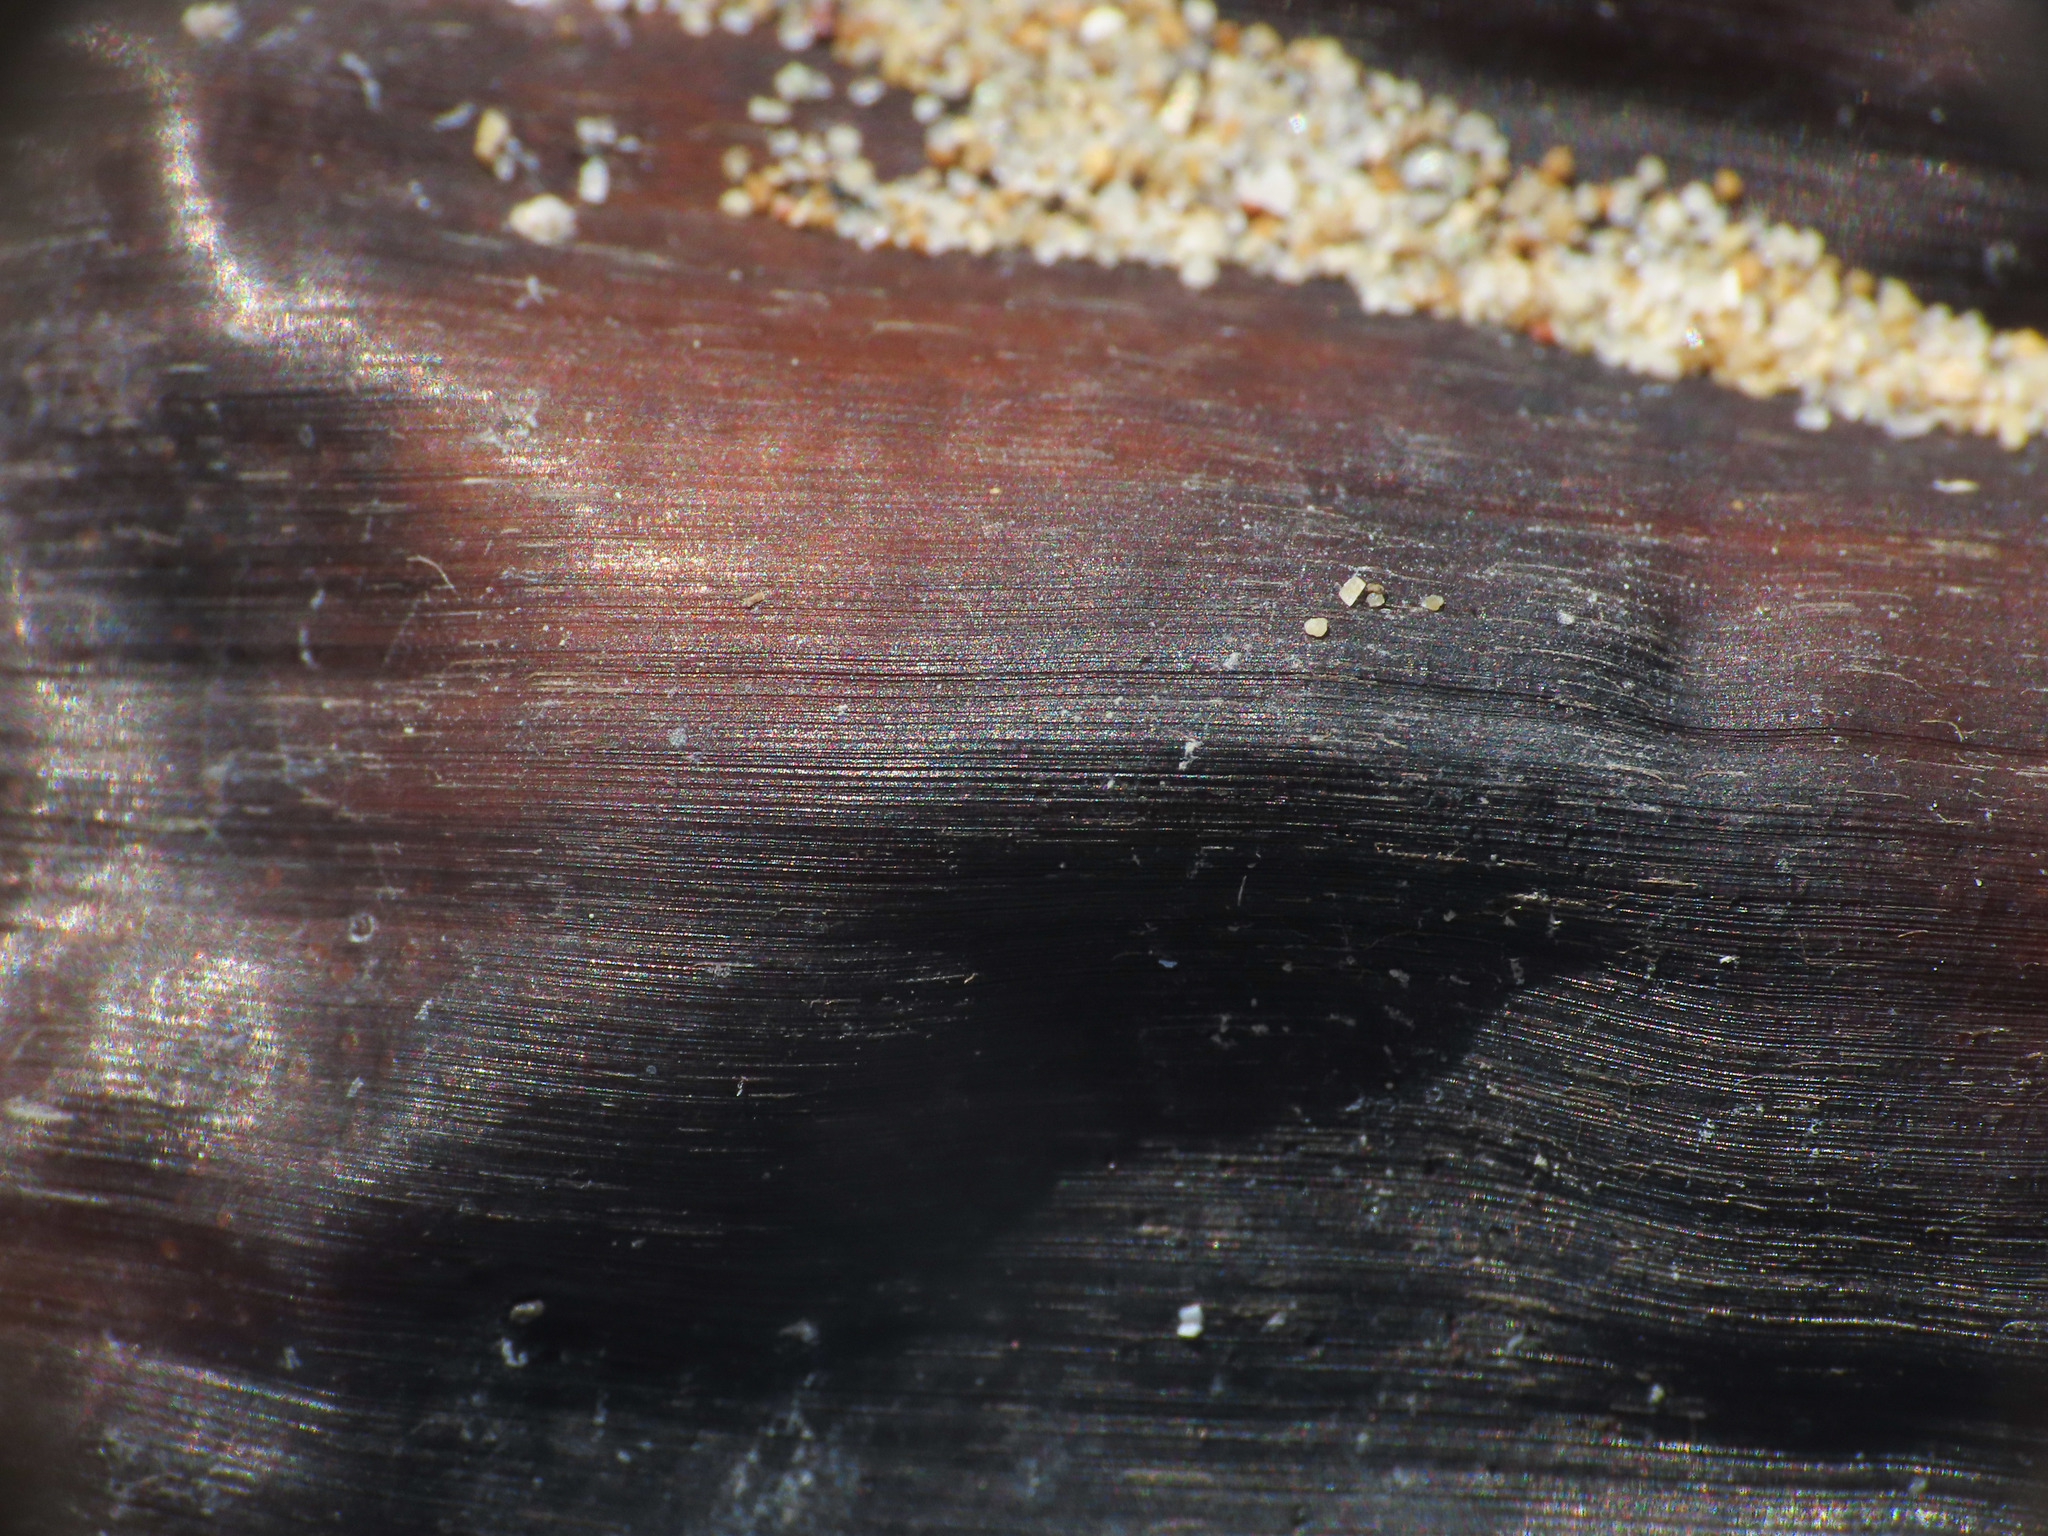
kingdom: Animalia
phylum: Chordata
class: Elasmobranchii
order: Rajiformes
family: Rajidae
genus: Raja
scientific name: Raja asterias
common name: Starry ray
